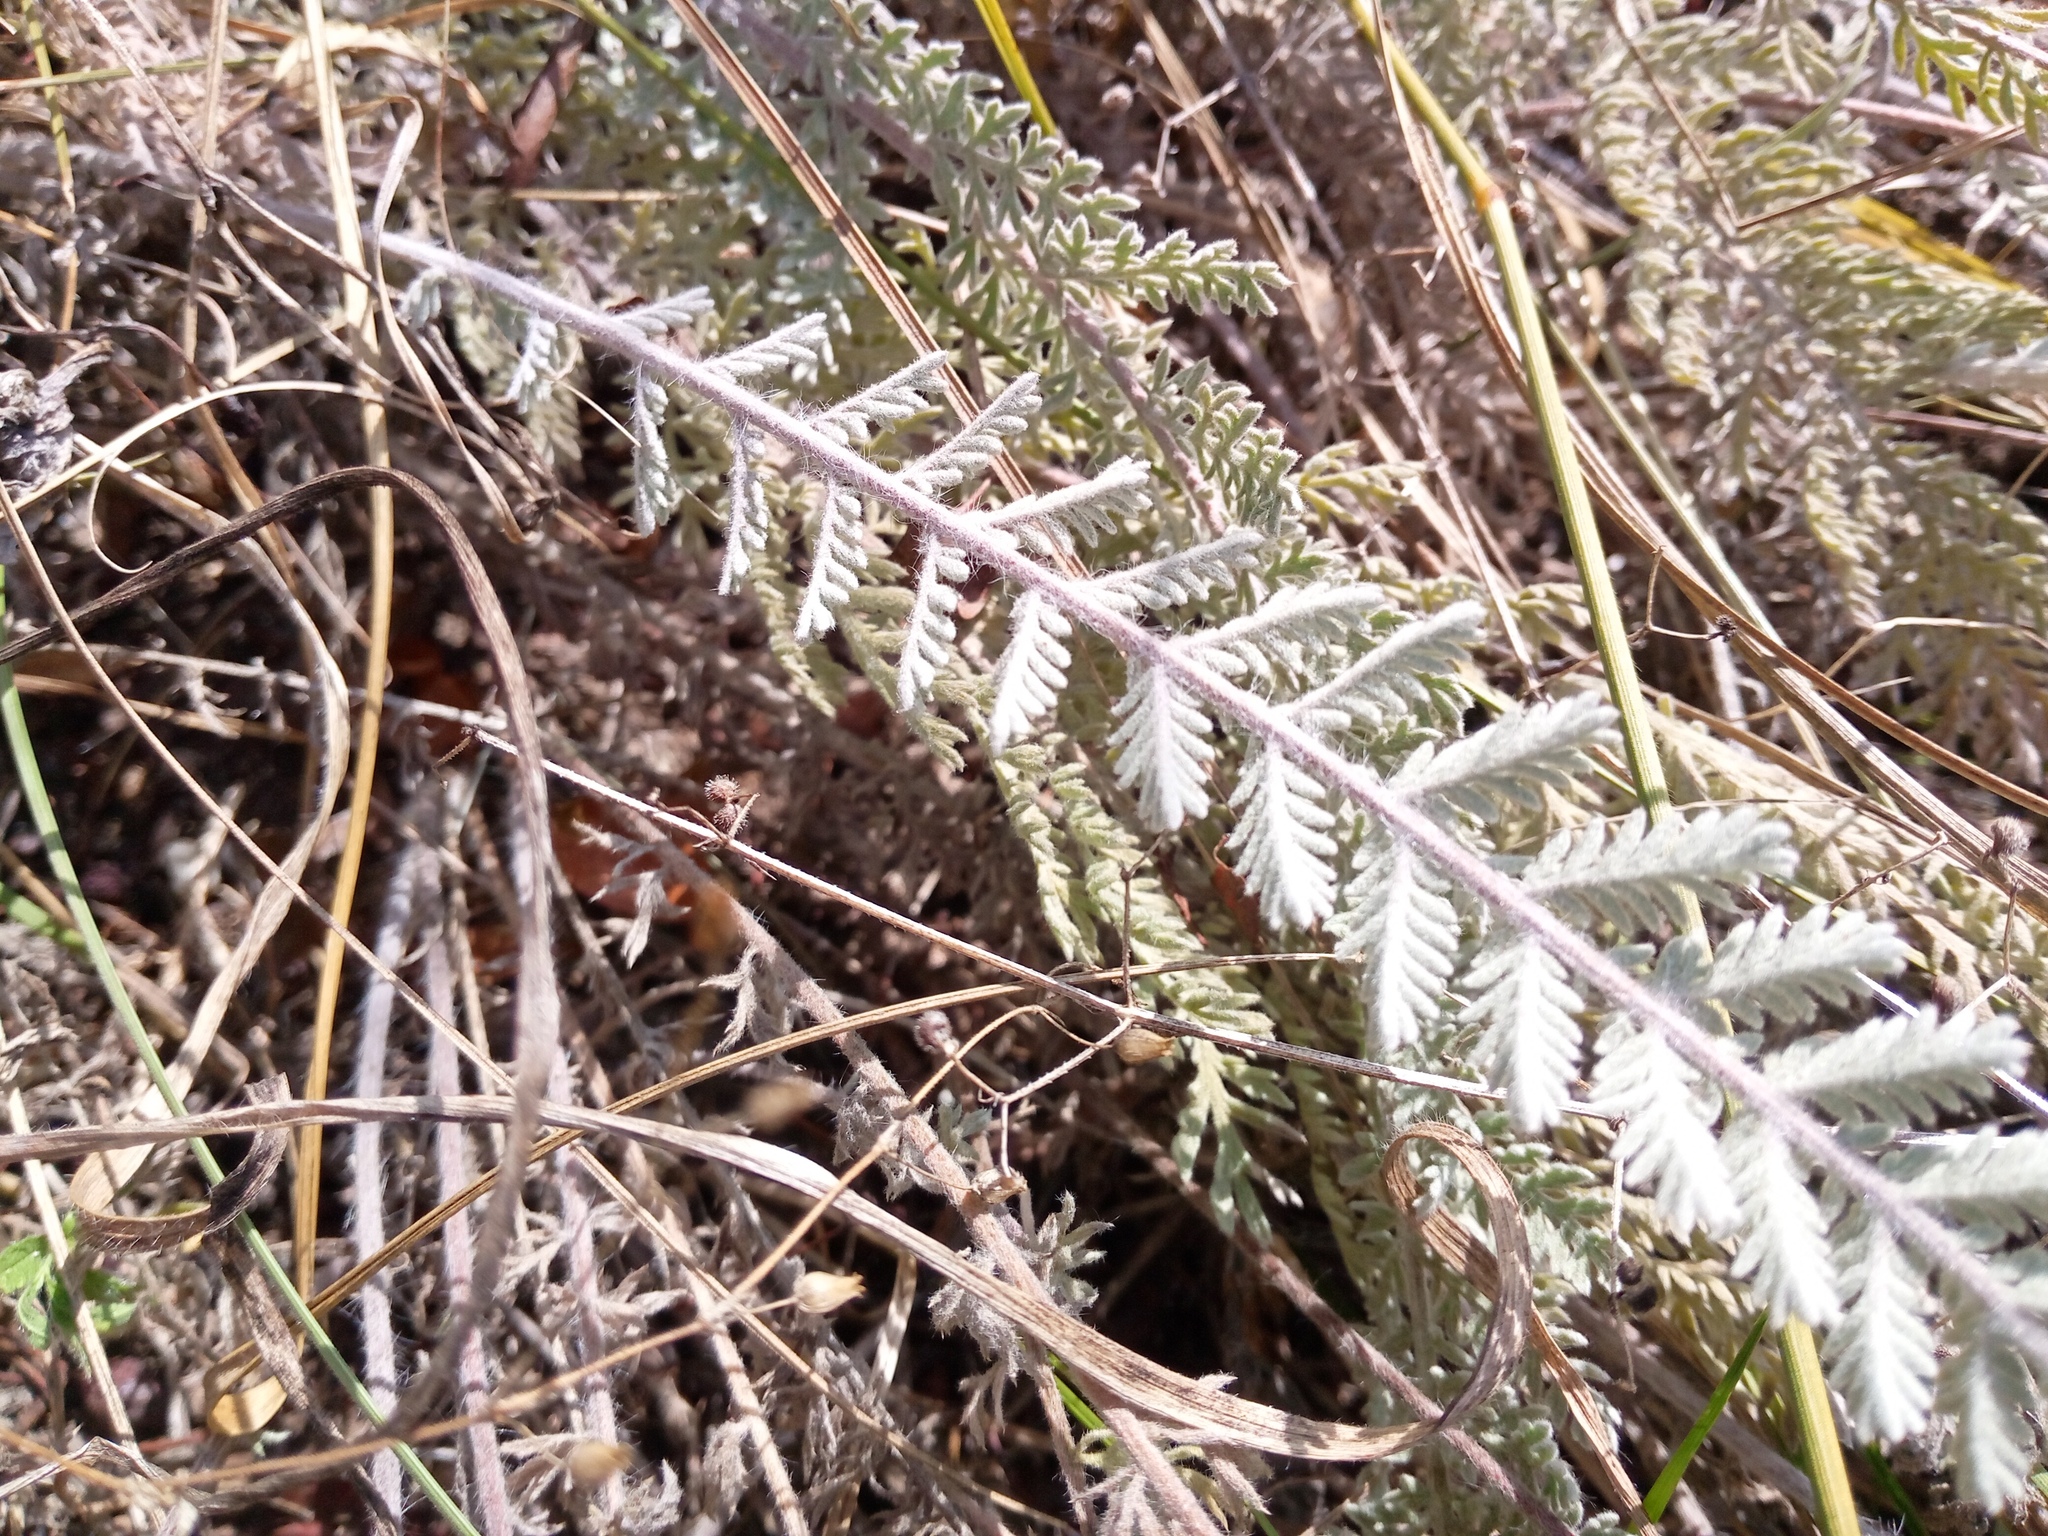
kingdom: Plantae
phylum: Tracheophyta
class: Magnoliopsida
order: Asterales
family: Asteraceae
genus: Tanacetum
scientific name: Tanacetum odessanum
